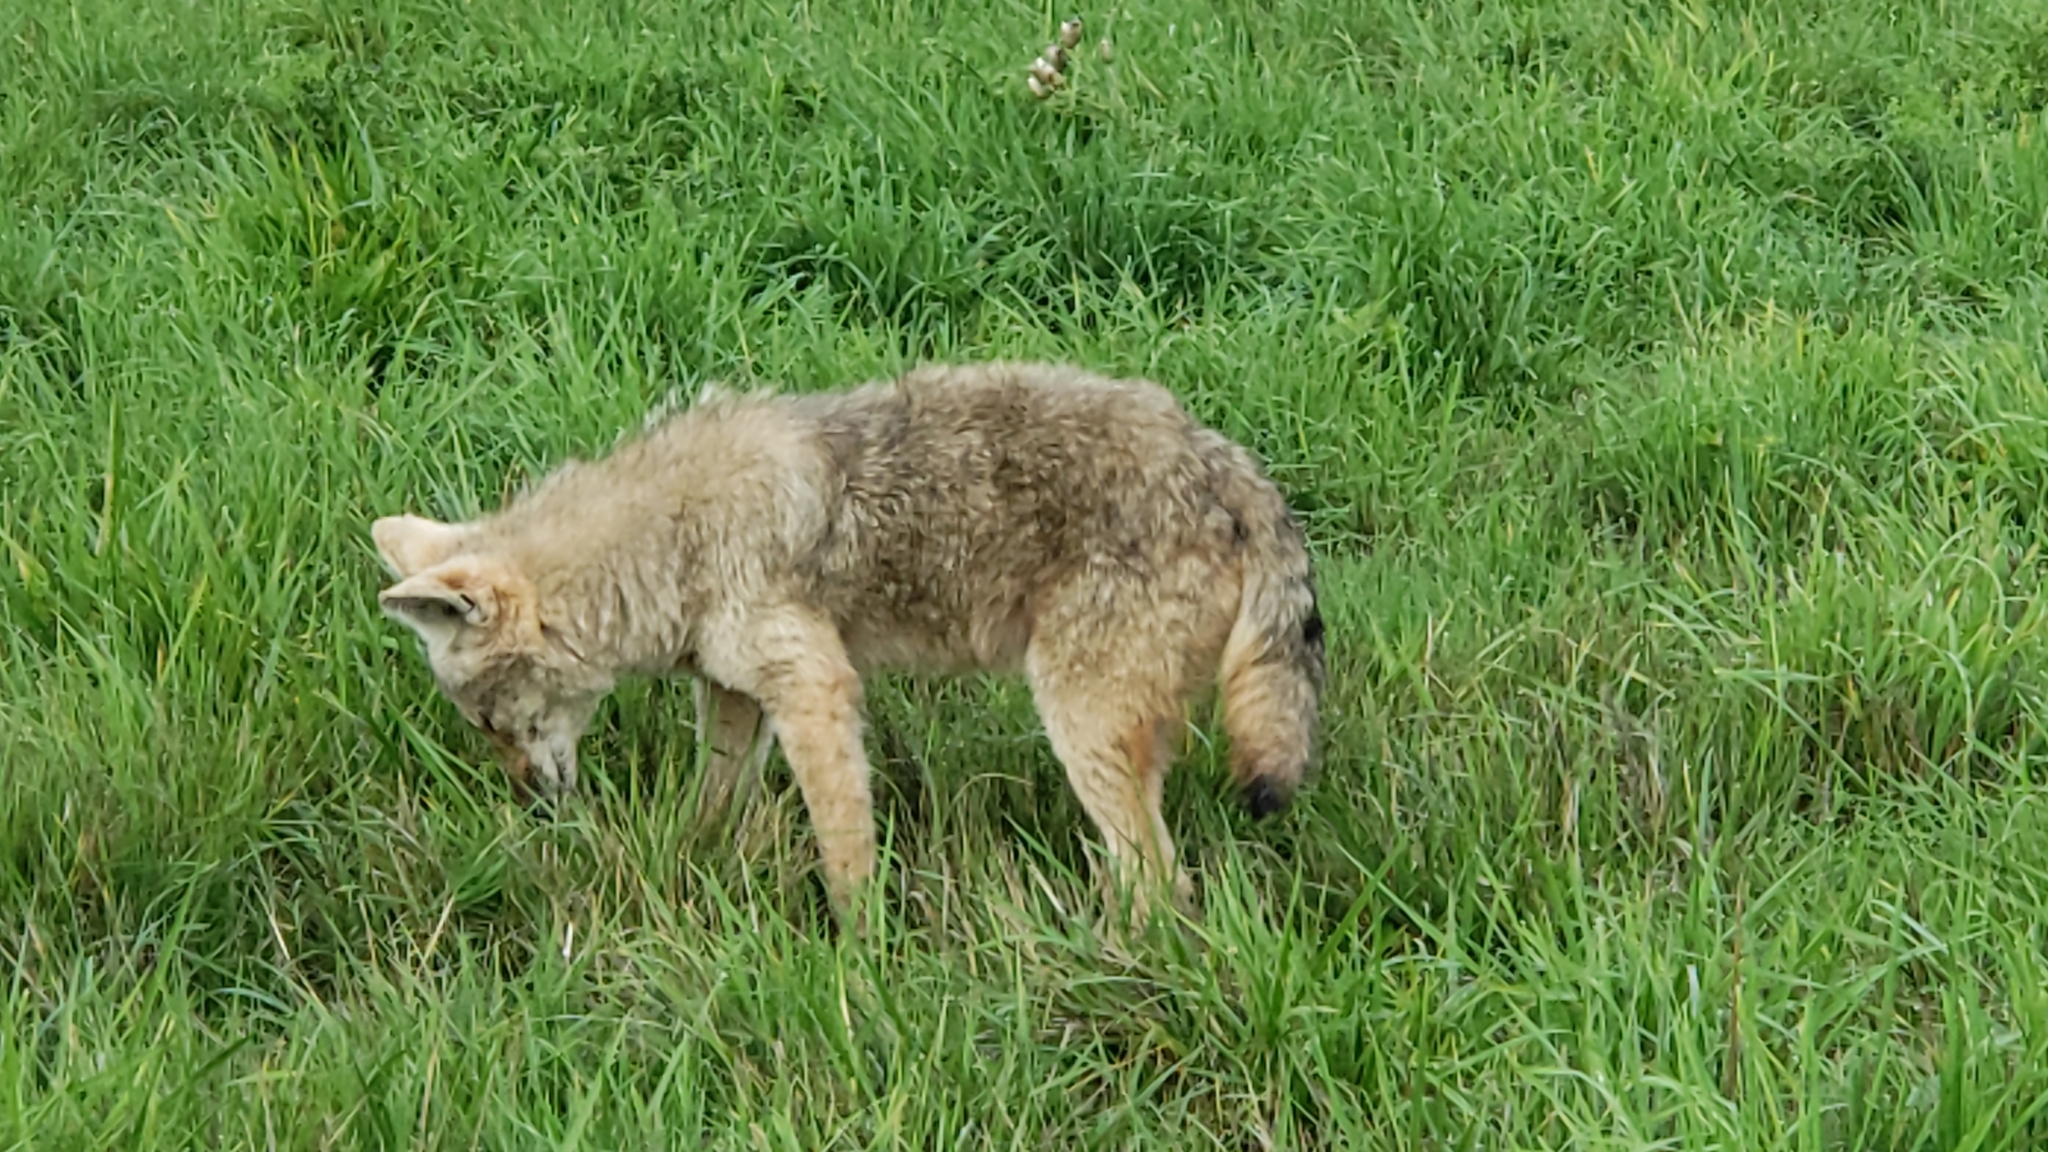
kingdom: Animalia
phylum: Chordata
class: Mammalia
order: Carnivora
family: Canidae
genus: Canis
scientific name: Canis latrans
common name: Coyote
